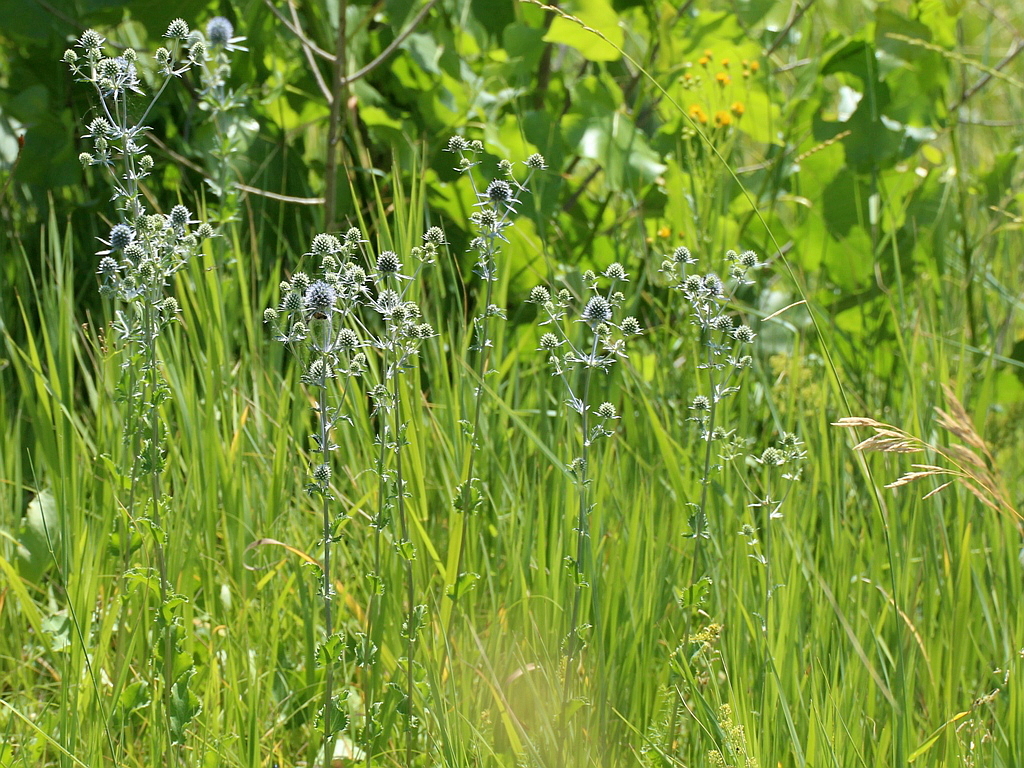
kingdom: Plantae
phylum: Tracheophyta
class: Magnoliopsida
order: Apiales
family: Apiaceae
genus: Eryngium
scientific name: Eryngium planum
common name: Blue eryngo
